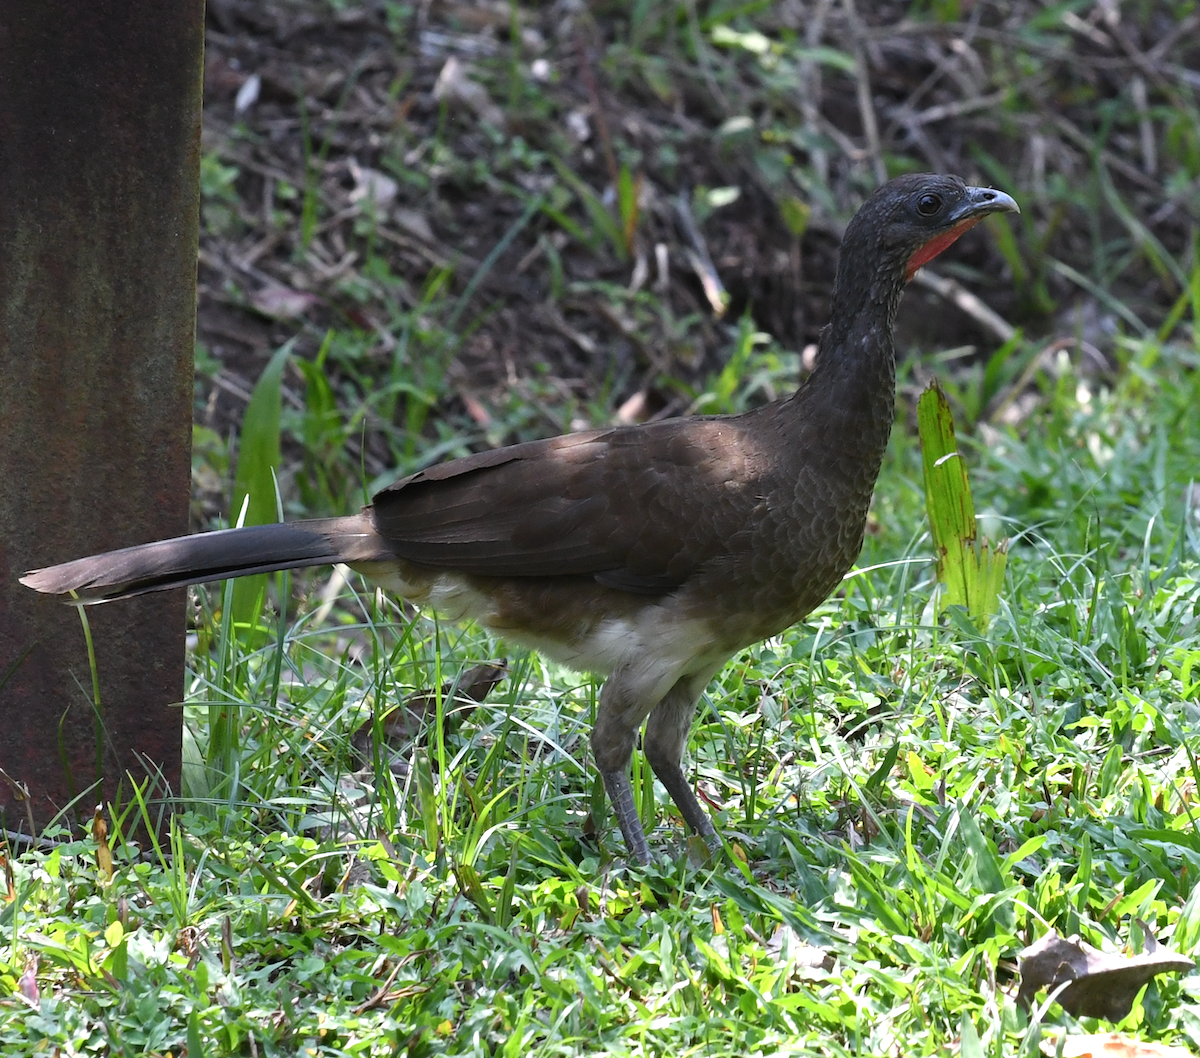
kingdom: Animalia
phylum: Chordata
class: Aves
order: Galliformes
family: Cracidae
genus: Ortalis
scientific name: Ortalis leucogastra
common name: White-bellied chachalaca
